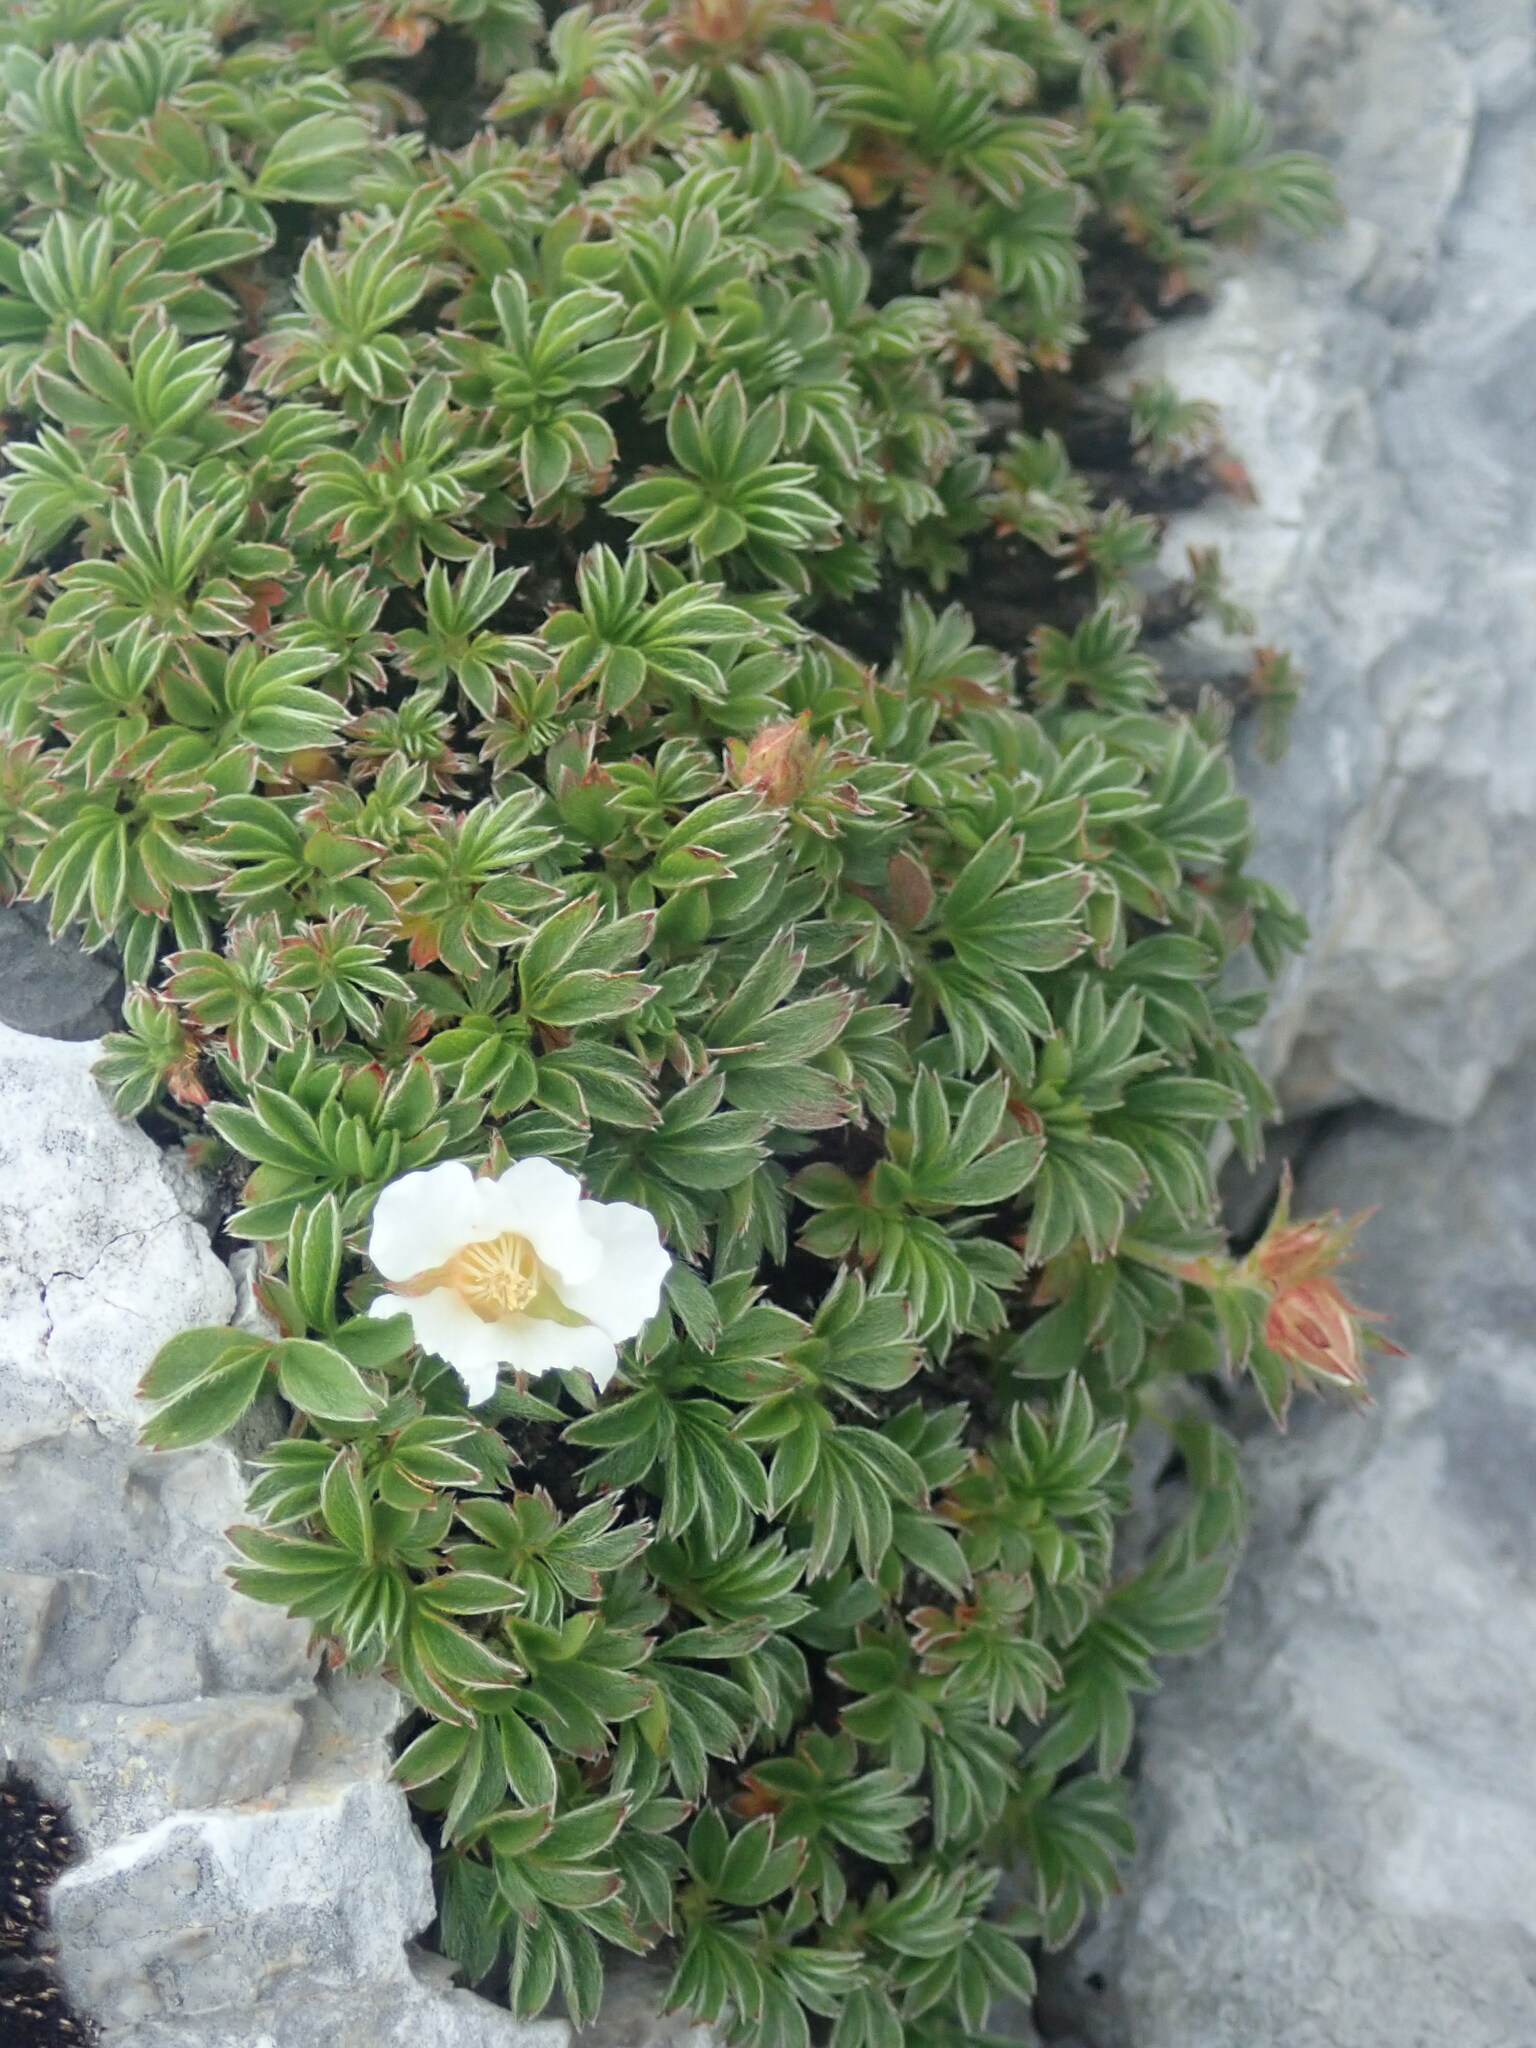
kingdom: Plantae
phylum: Tracheophyta
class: Magnoliopsida
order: Rosales
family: Rosaceae
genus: Potentilla
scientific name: Potentilla clusiana
